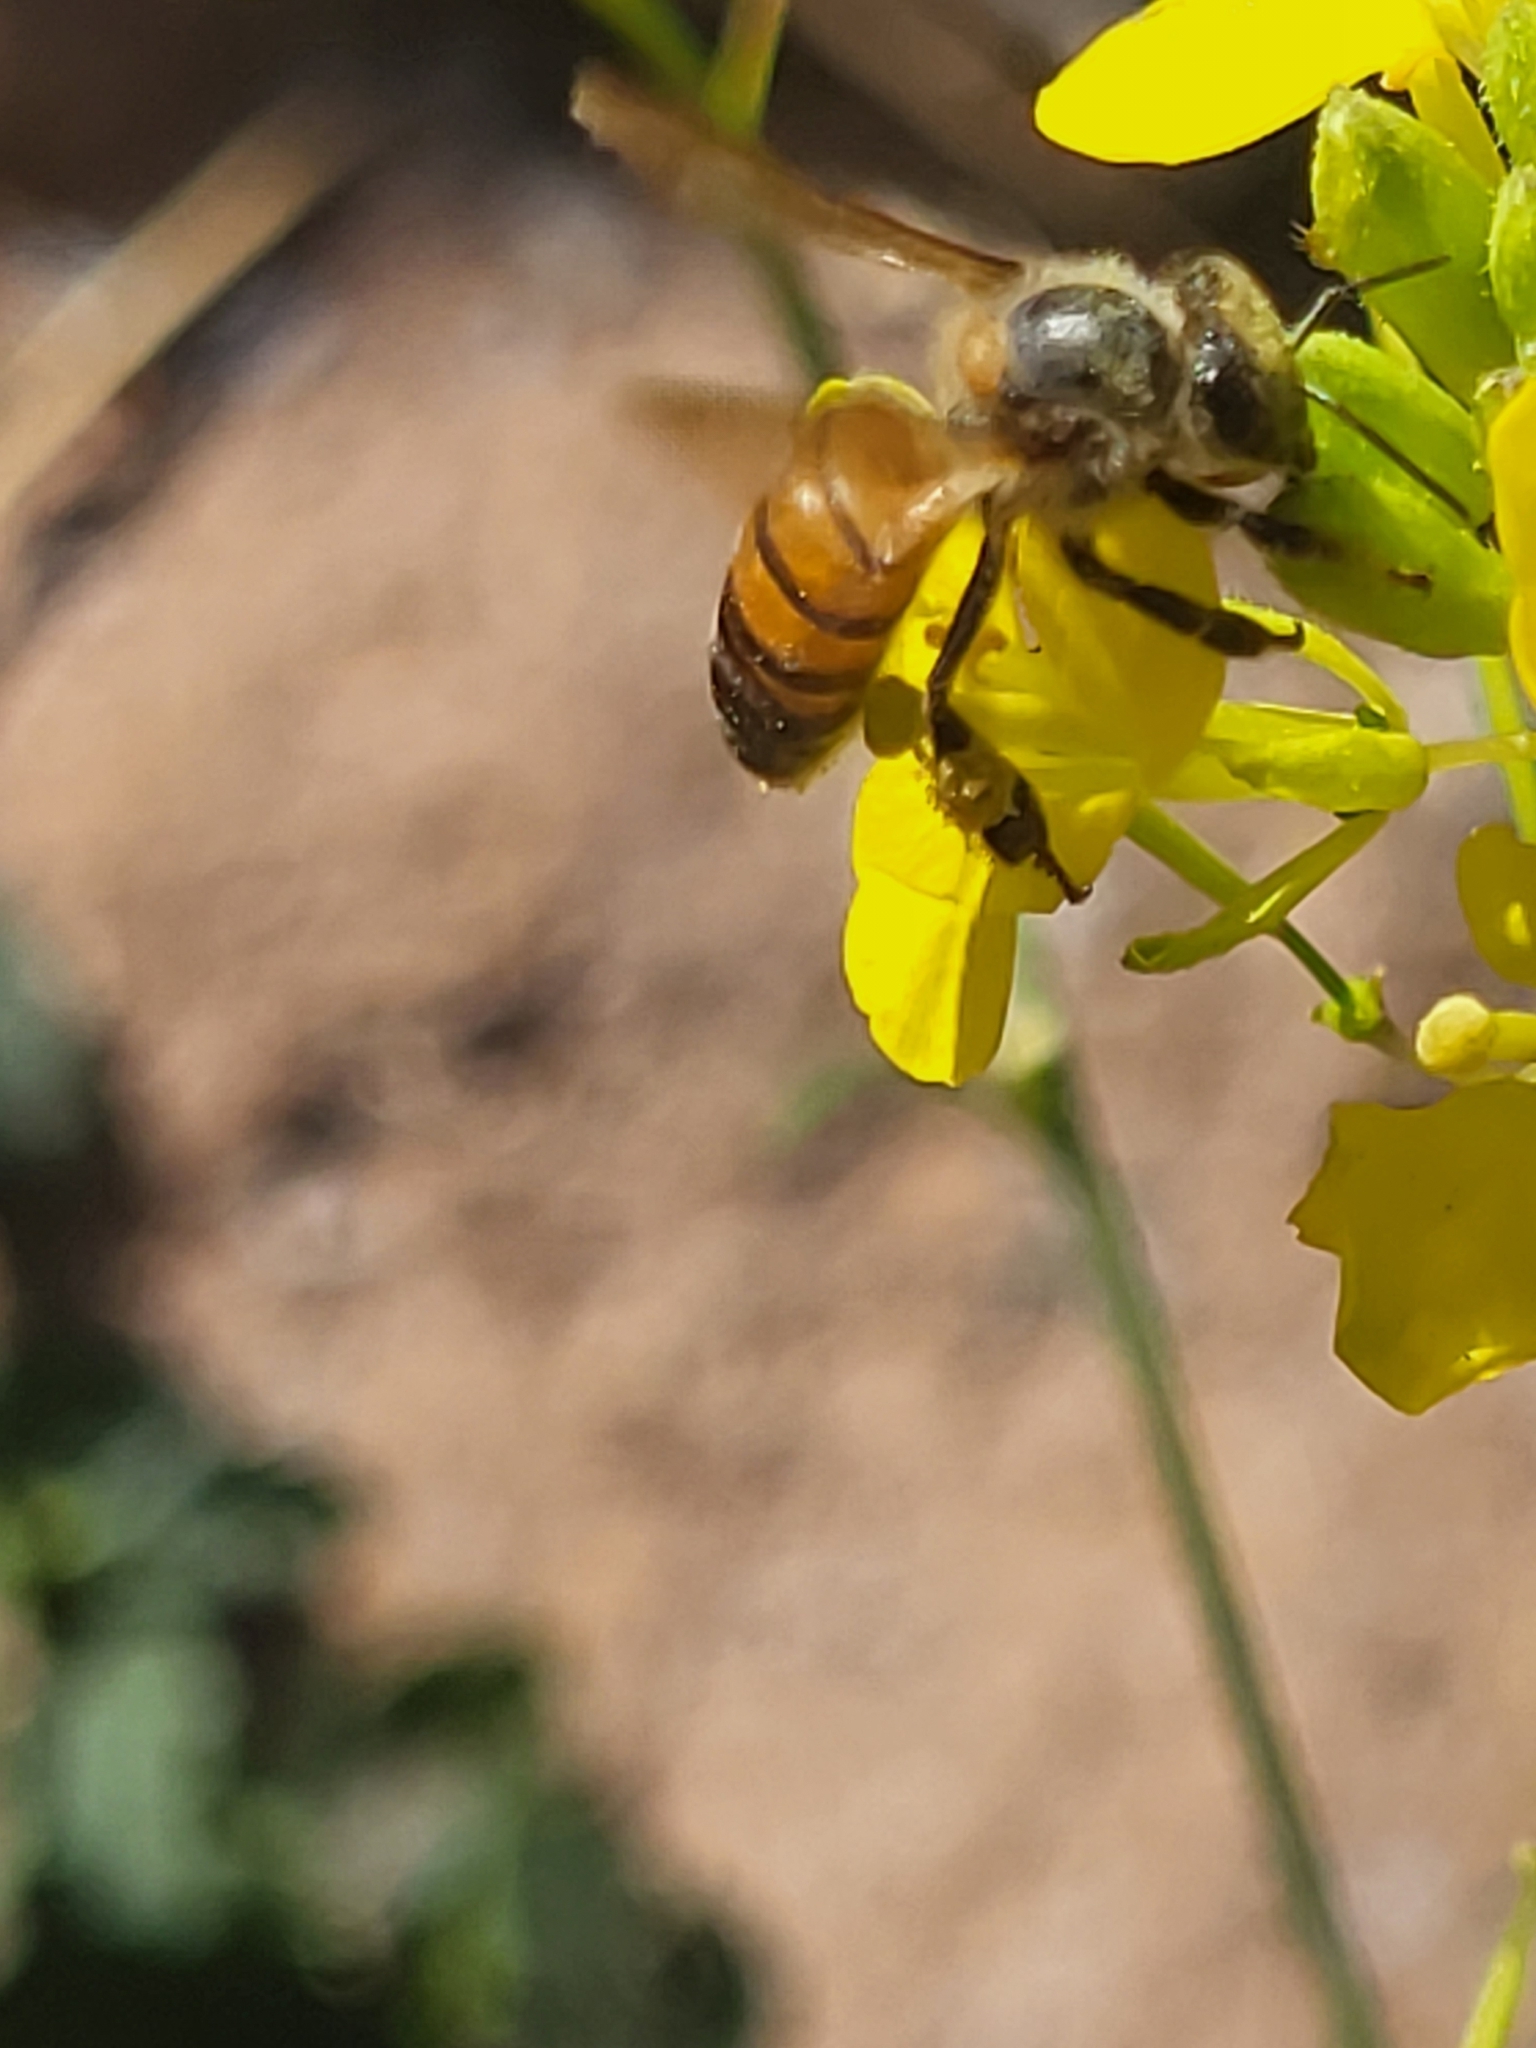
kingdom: Animalia
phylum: Arthropoda
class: Insecta
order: Hymenoptera
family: Apidae
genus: Apis
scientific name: Apis mellifera
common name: Honey bee
